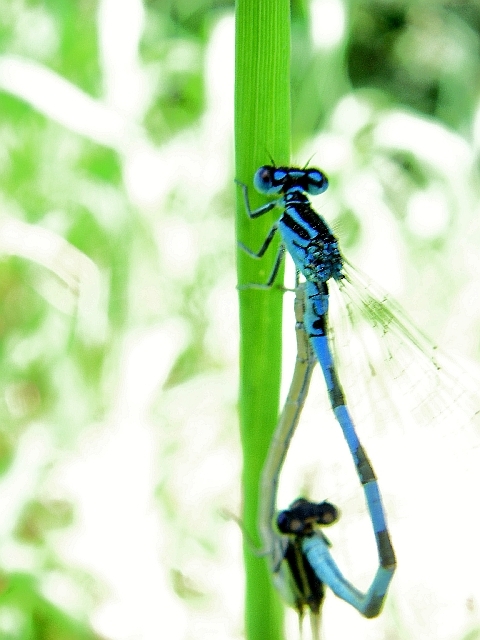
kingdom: Animalia
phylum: Arthropoda
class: Insecta
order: Odonata
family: Coenagrionidae
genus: Coenagrion
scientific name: Coenagrion mercuriale
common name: Southern damselfly
